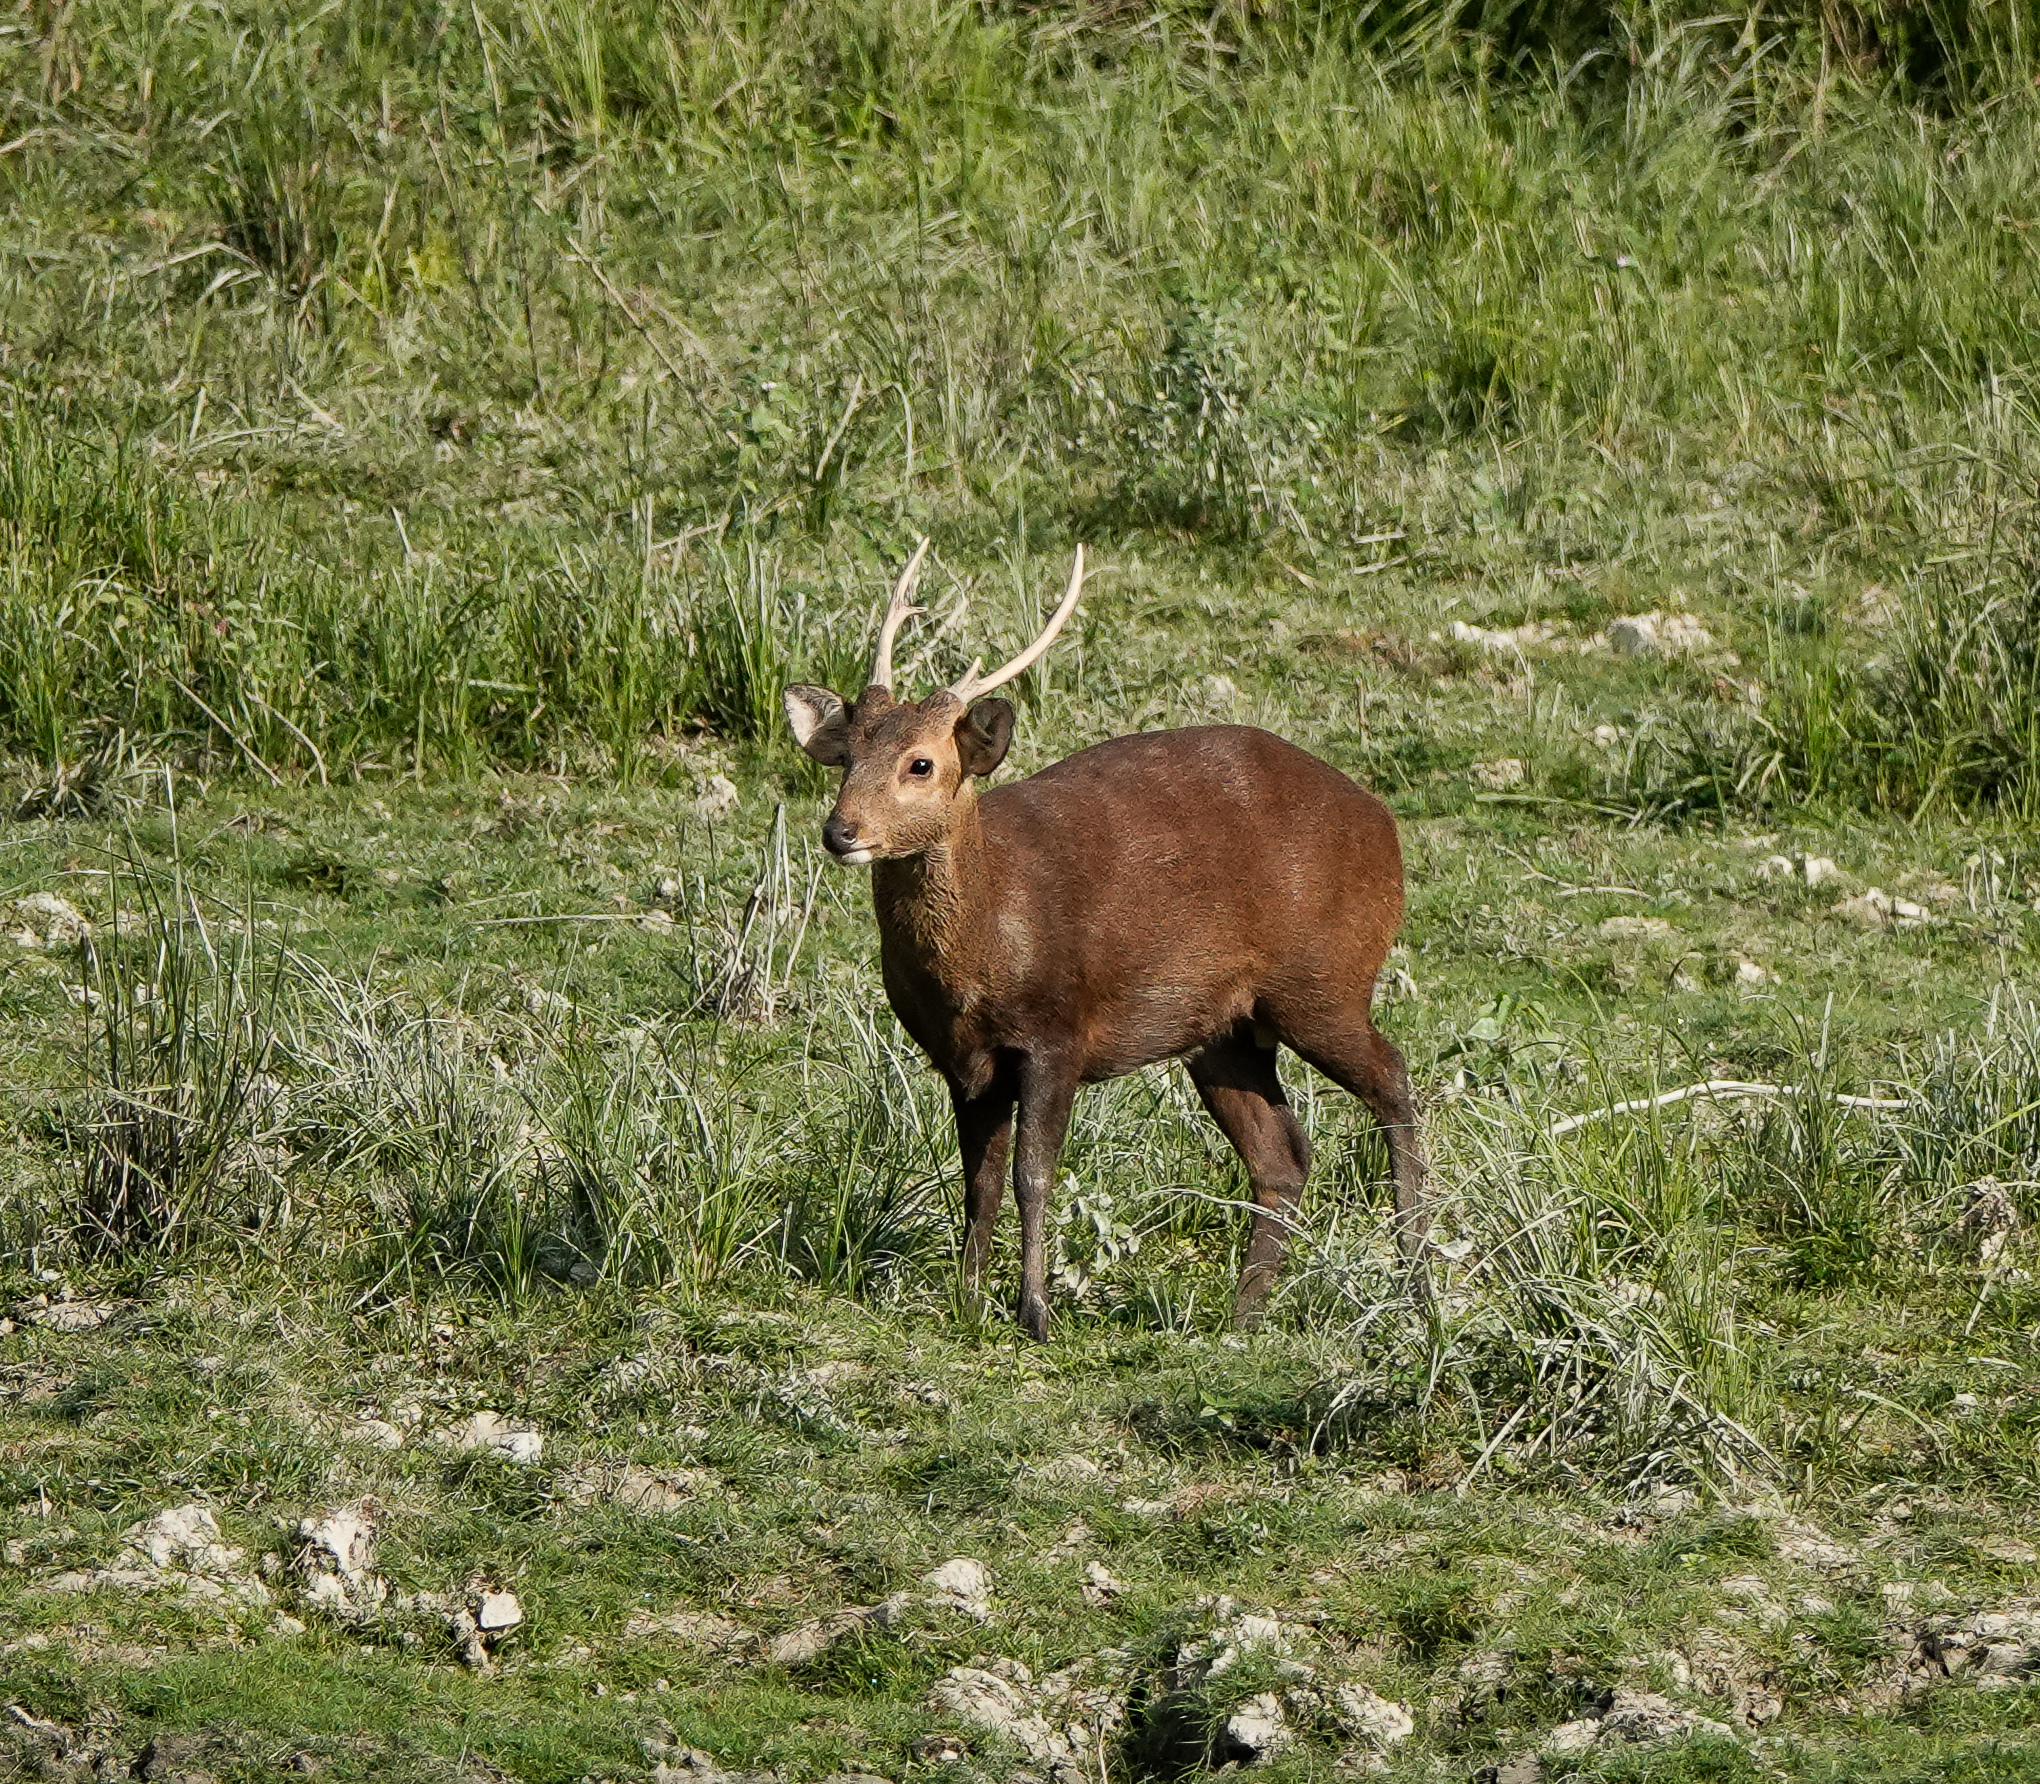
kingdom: Animalia
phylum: Chordata
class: Mammalia
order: Artiodactyla
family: Cervidae
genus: Axis
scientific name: Axis porcinus
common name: Hog deer
